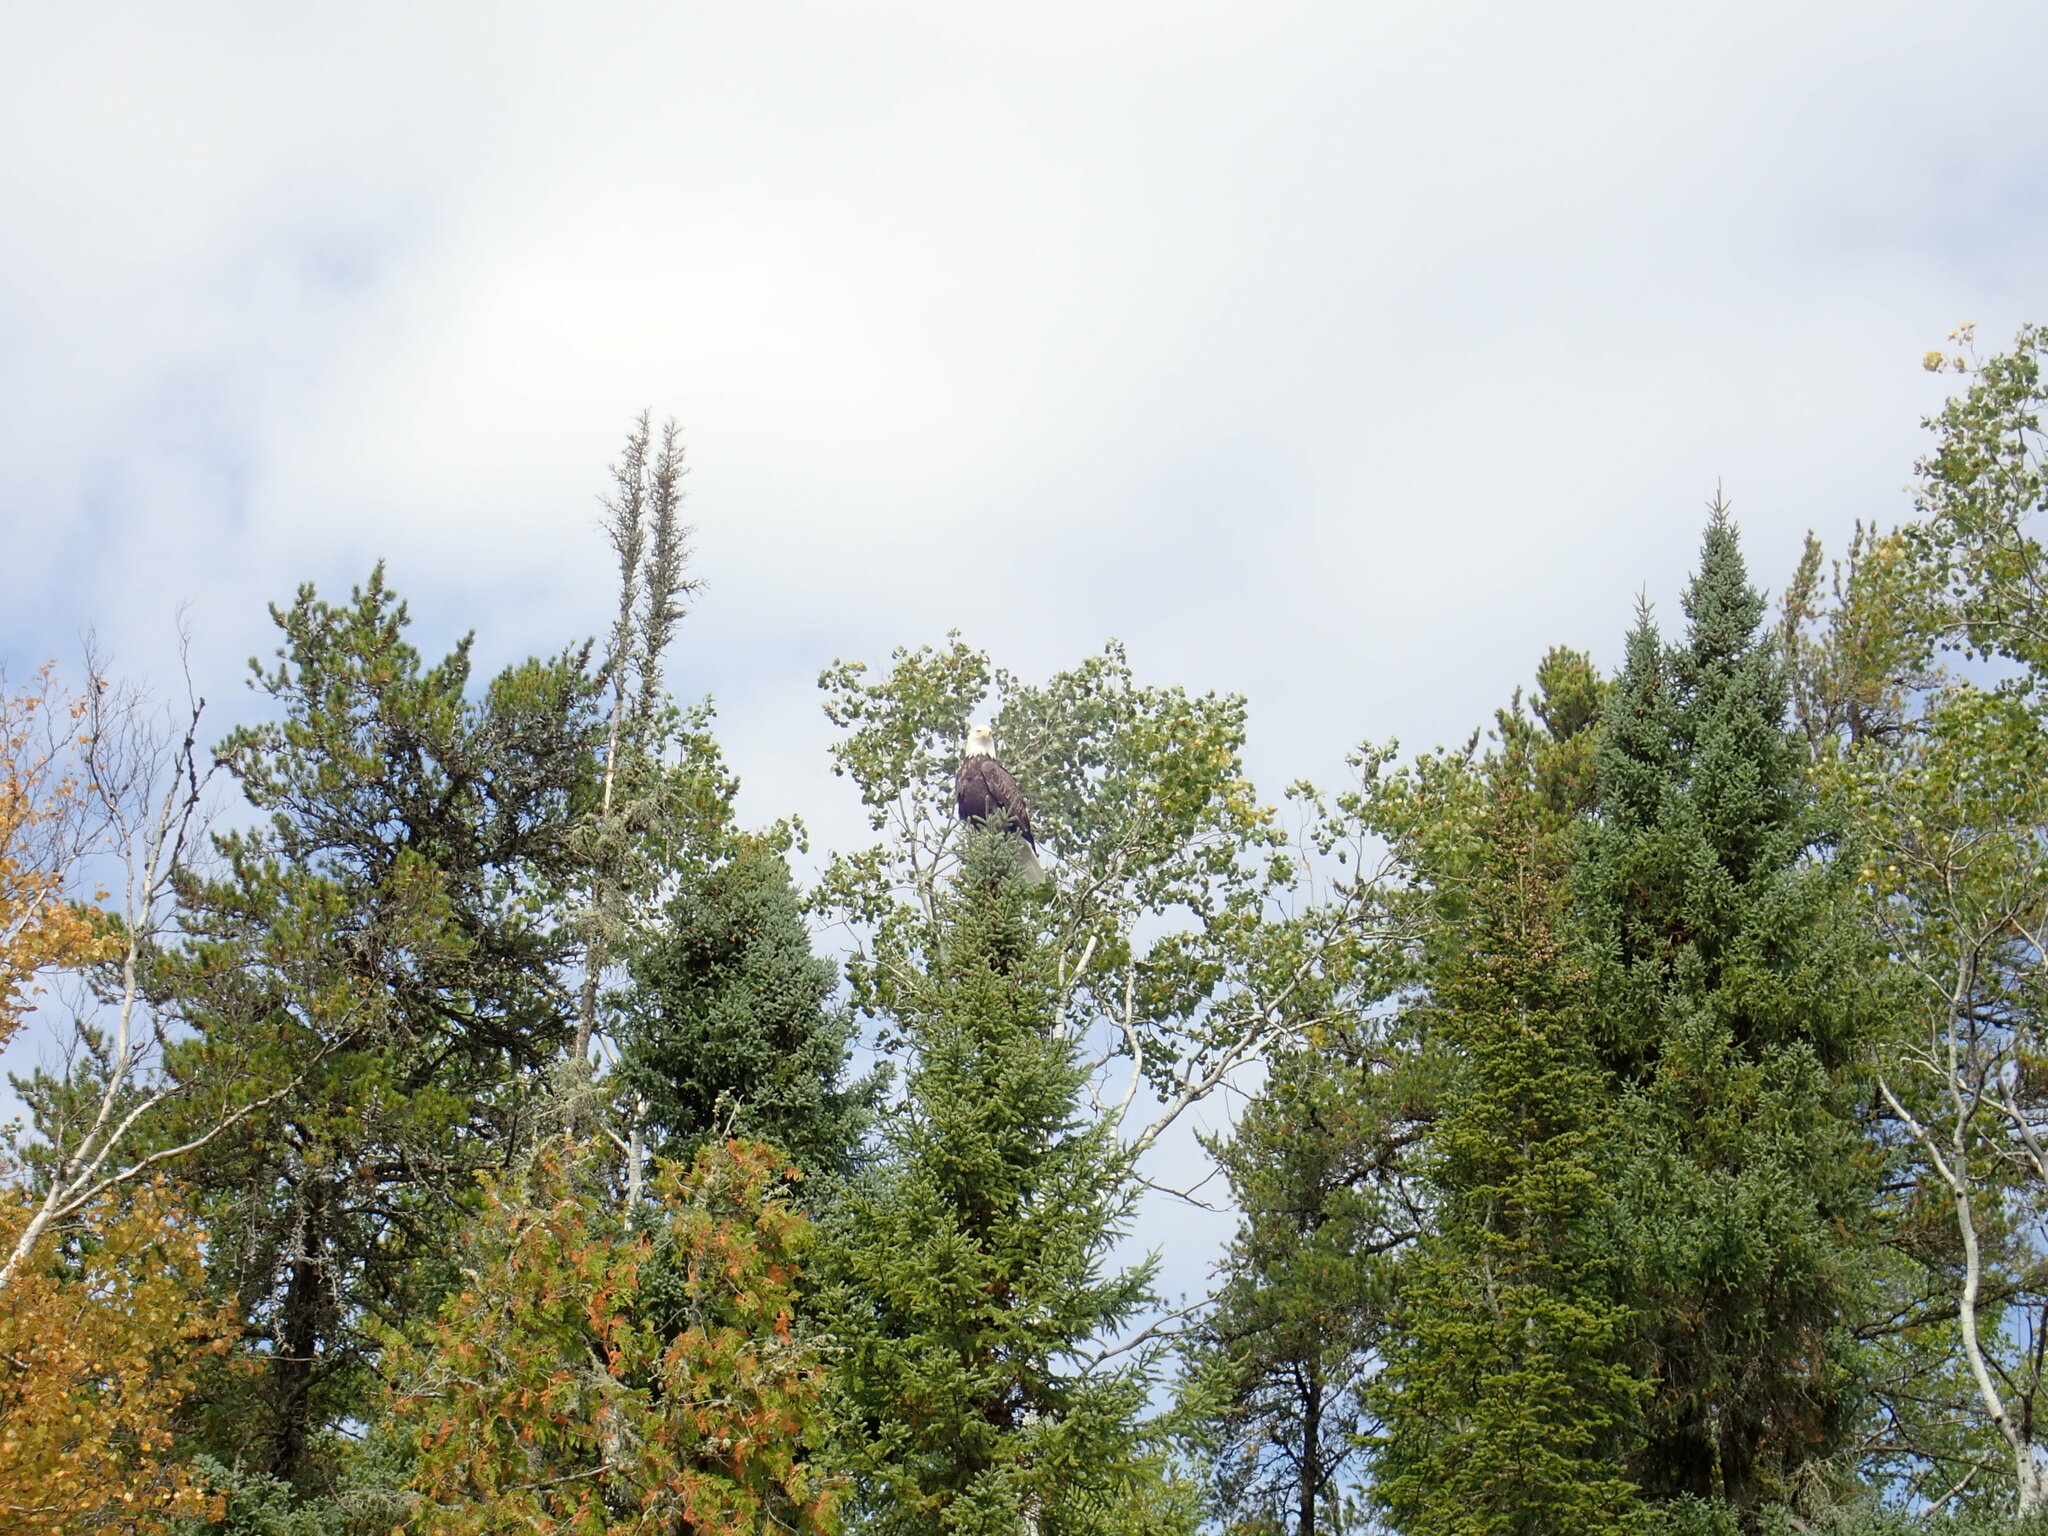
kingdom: Animalia
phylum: Chordata
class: Aves
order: Accipitriformes
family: Accipitridae
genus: Haliaeetus
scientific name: Haliaeetus leucocephalus
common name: Bald eagle
